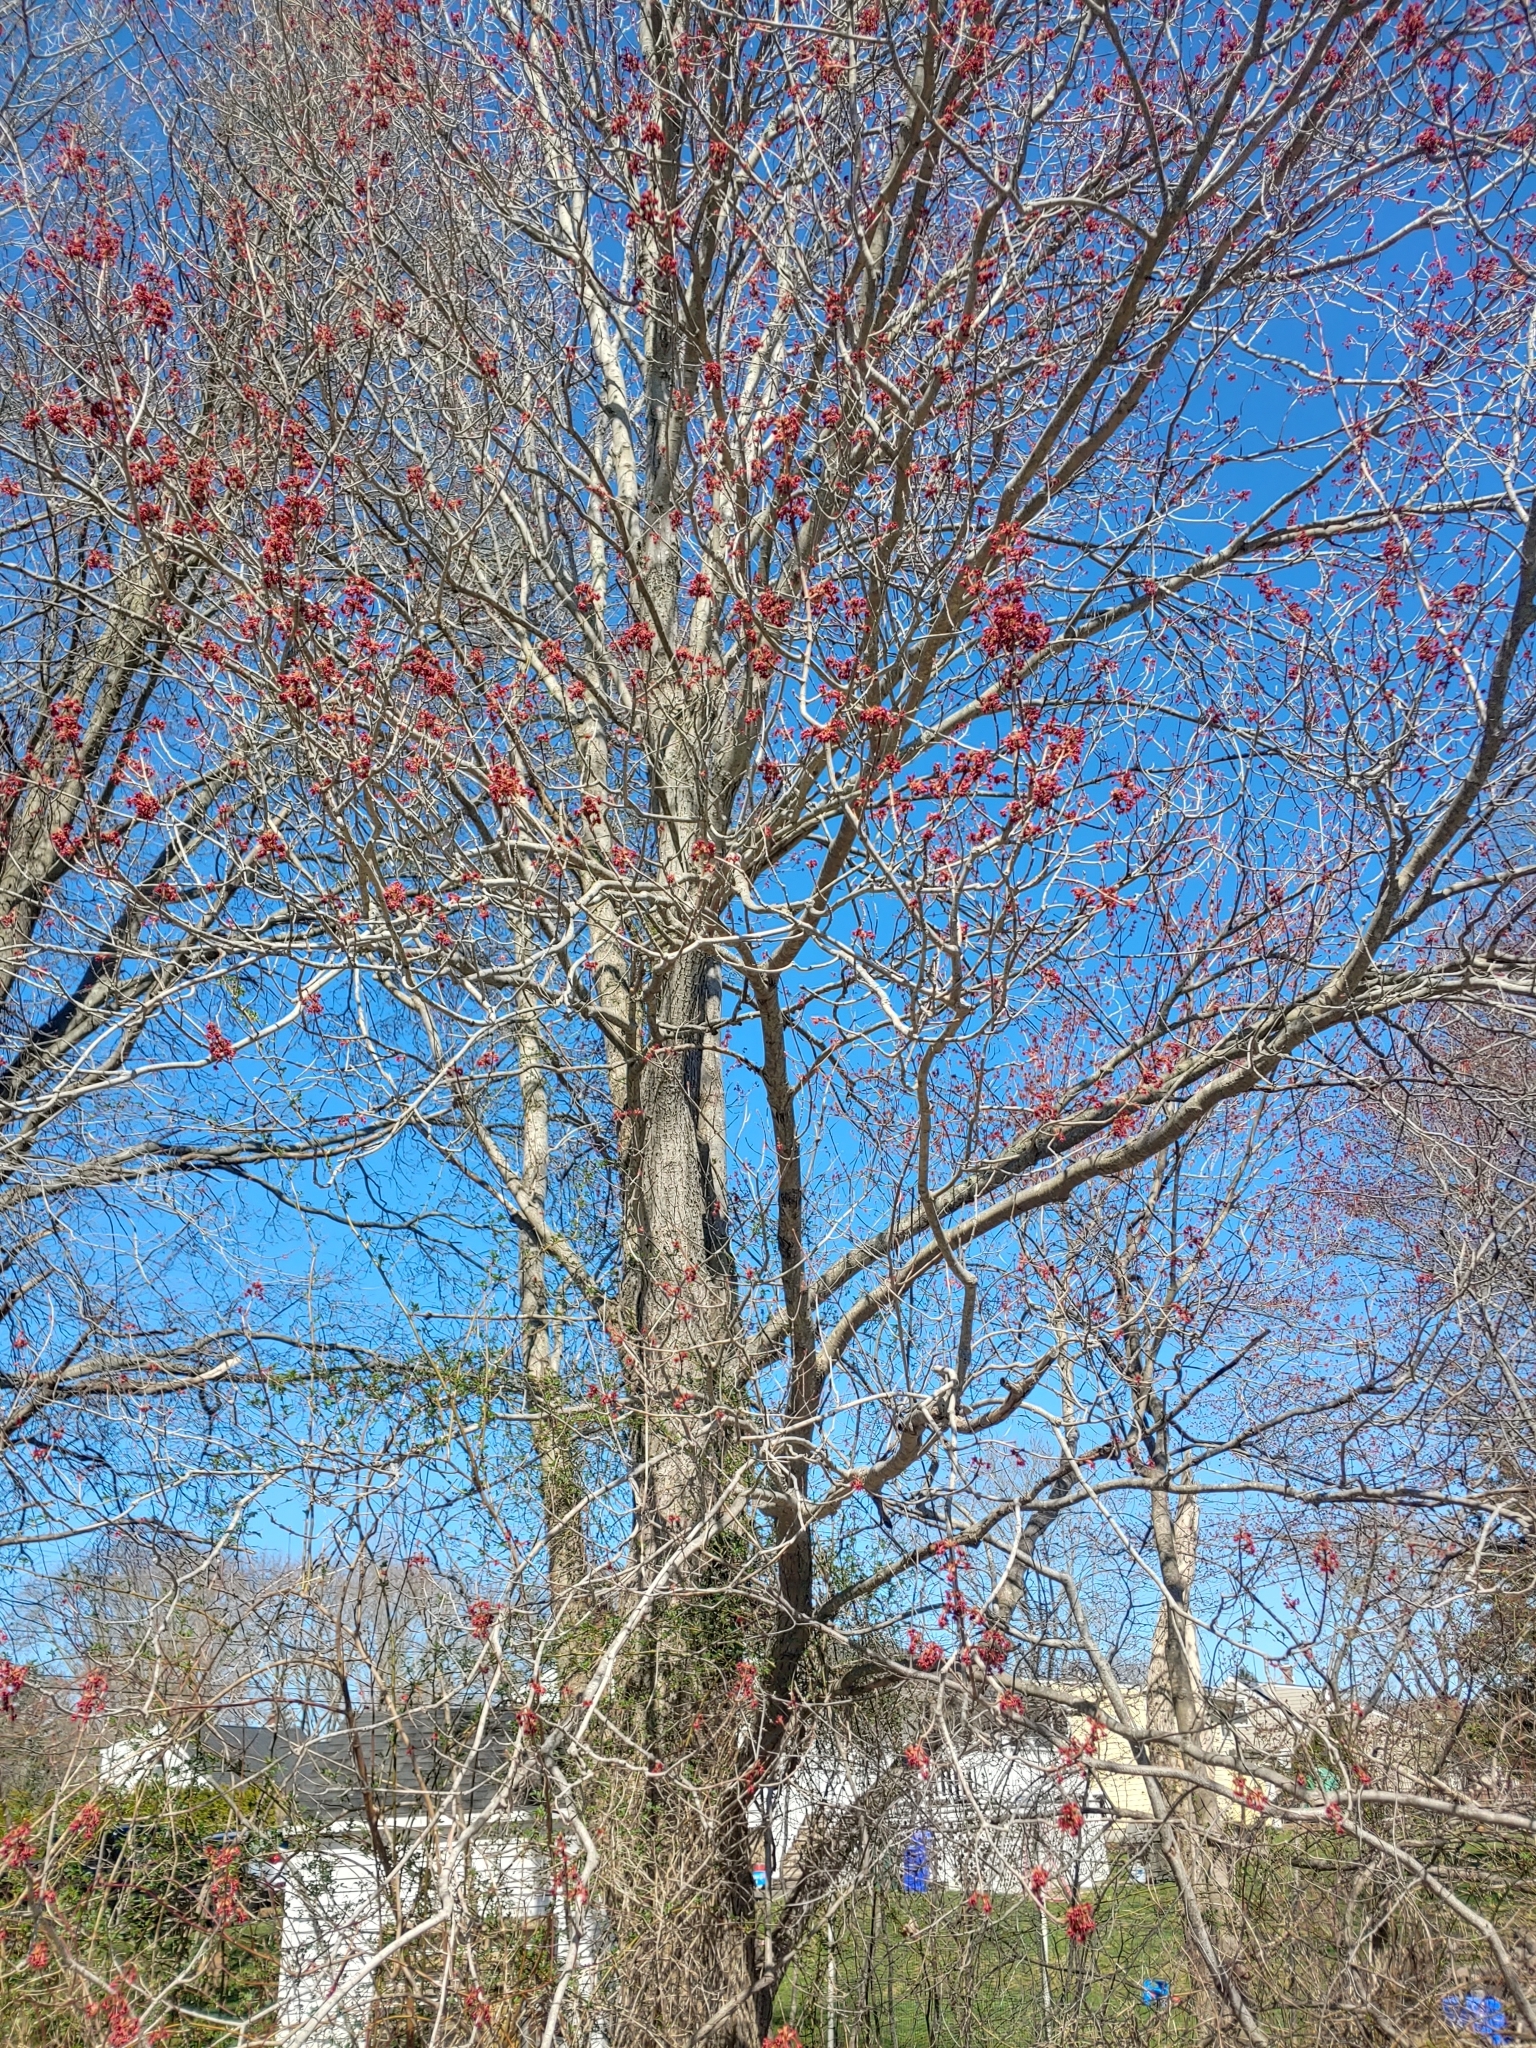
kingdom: Plantae
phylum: Tracheophyta
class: Magnoliopsida
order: Sapindales
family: Sapindaceae
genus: Acer
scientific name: Acer rubrum
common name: Red maple
